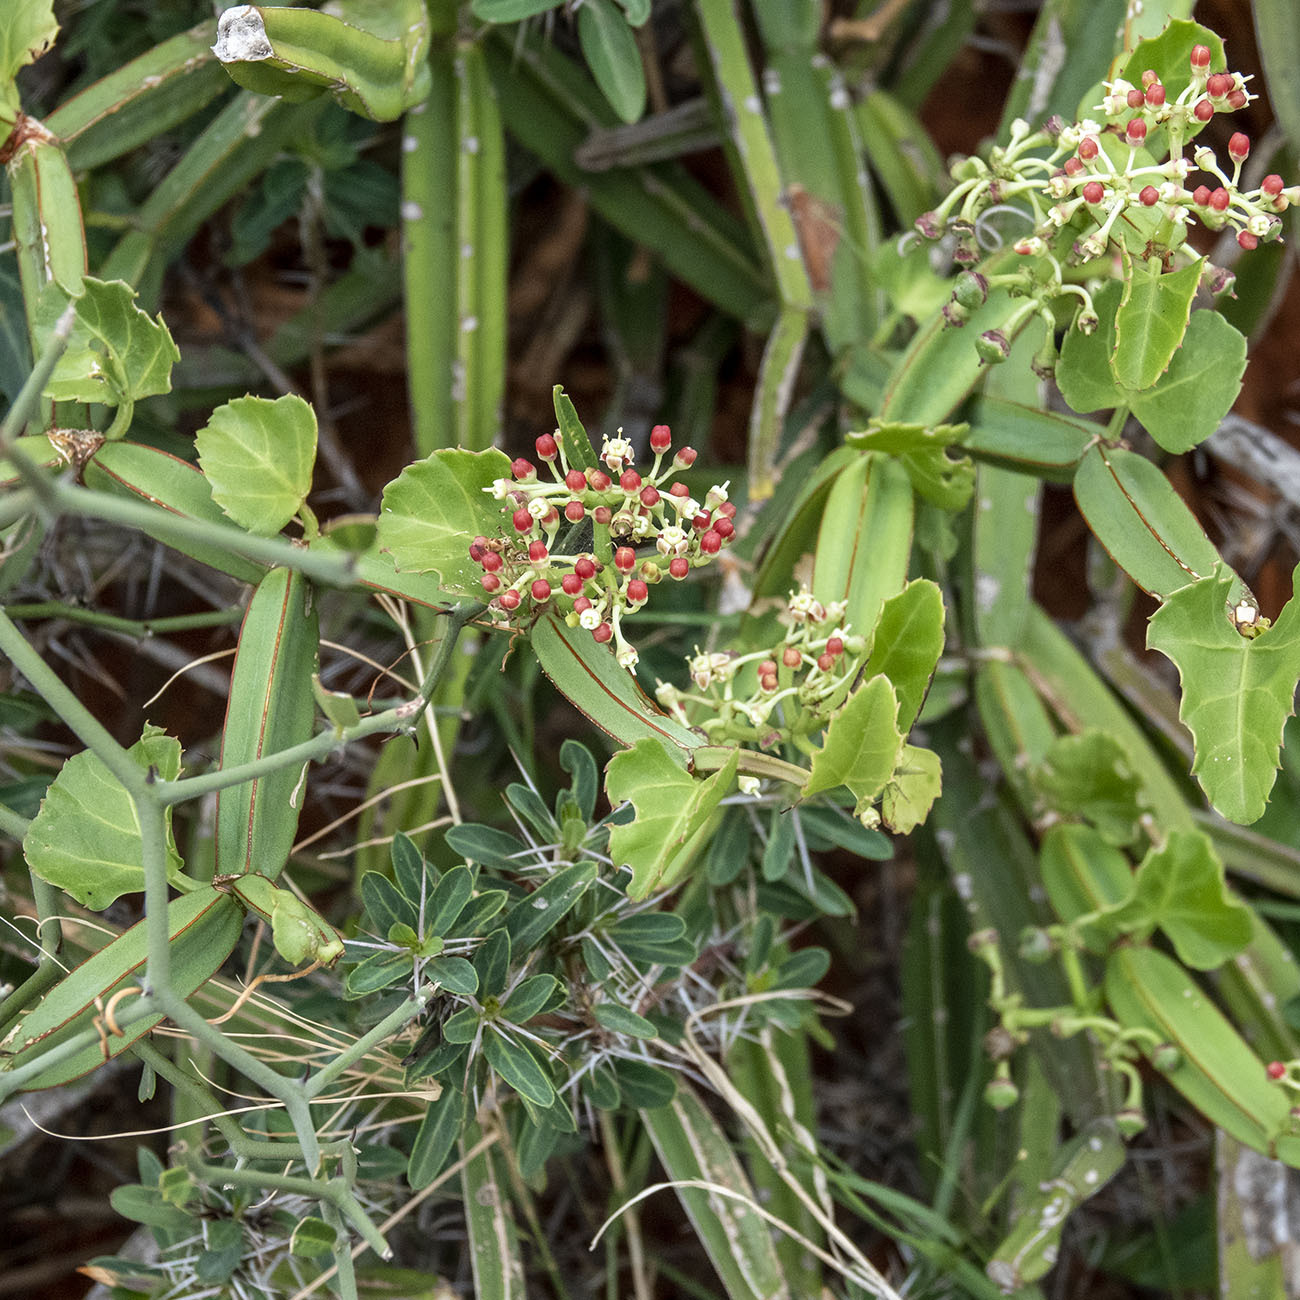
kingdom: Plantae
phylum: Tracheophyta
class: Magnoliopsida
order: Vitales
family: Vitaceae
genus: Cissus
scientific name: Cissus quadrangularis
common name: Veldt-grape
